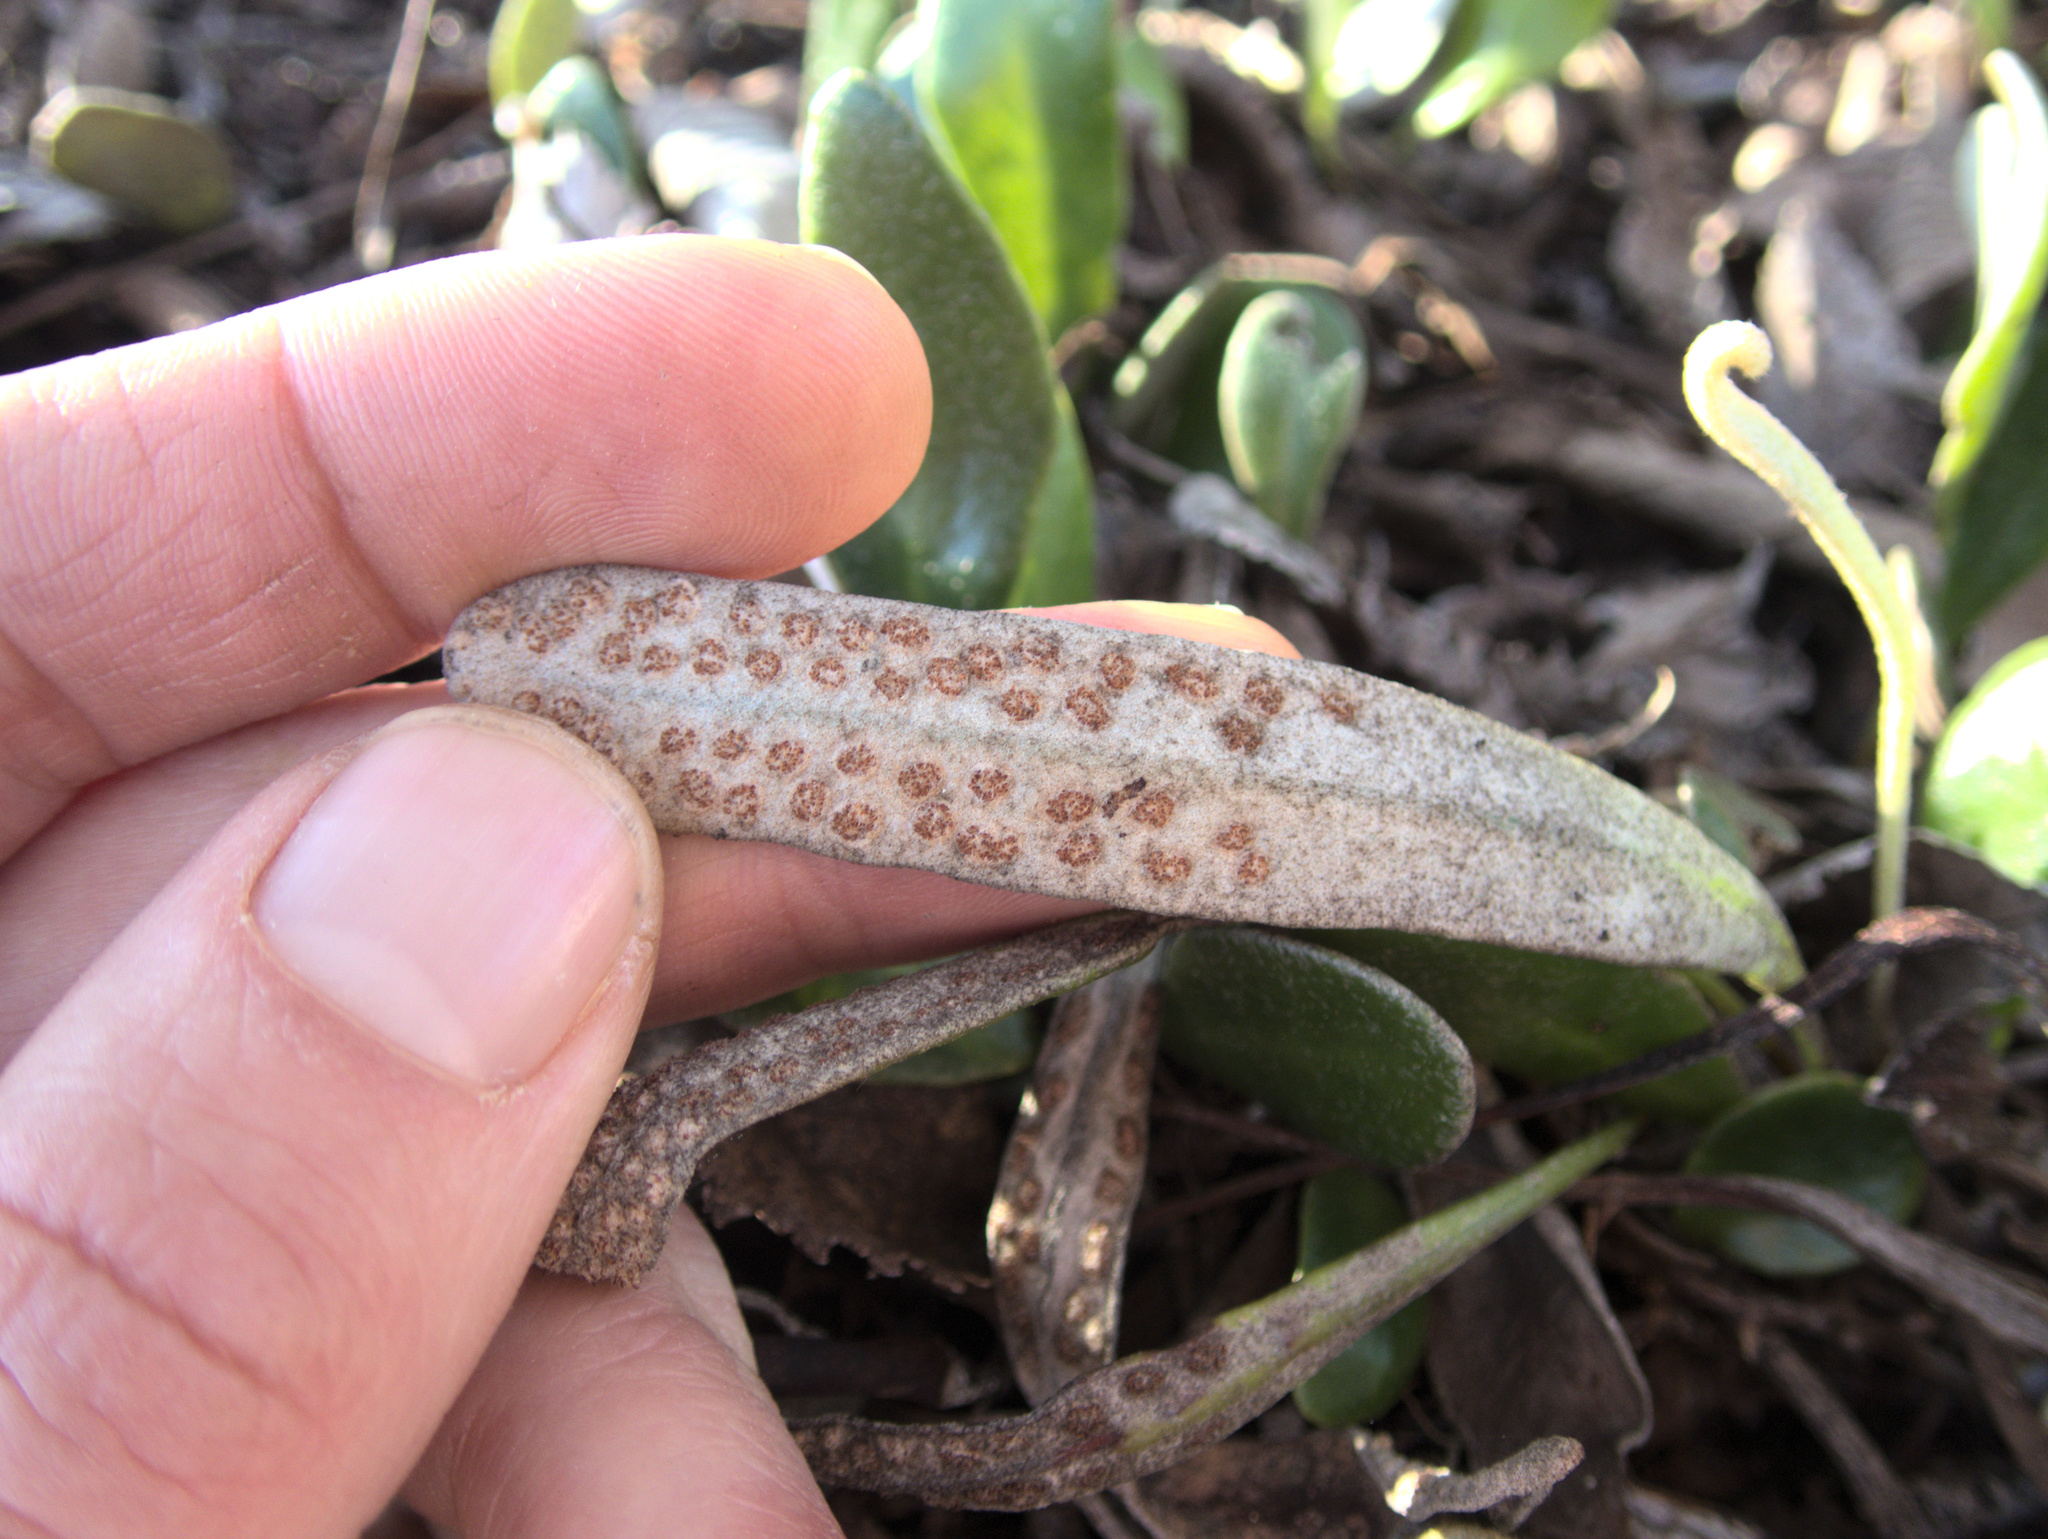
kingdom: Plantae
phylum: Tracheophyta
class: Polypodiopsida
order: Polypodiales
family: Polypodiaceae
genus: Pyrrosia
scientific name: Pyrrosia eleagnifolia
